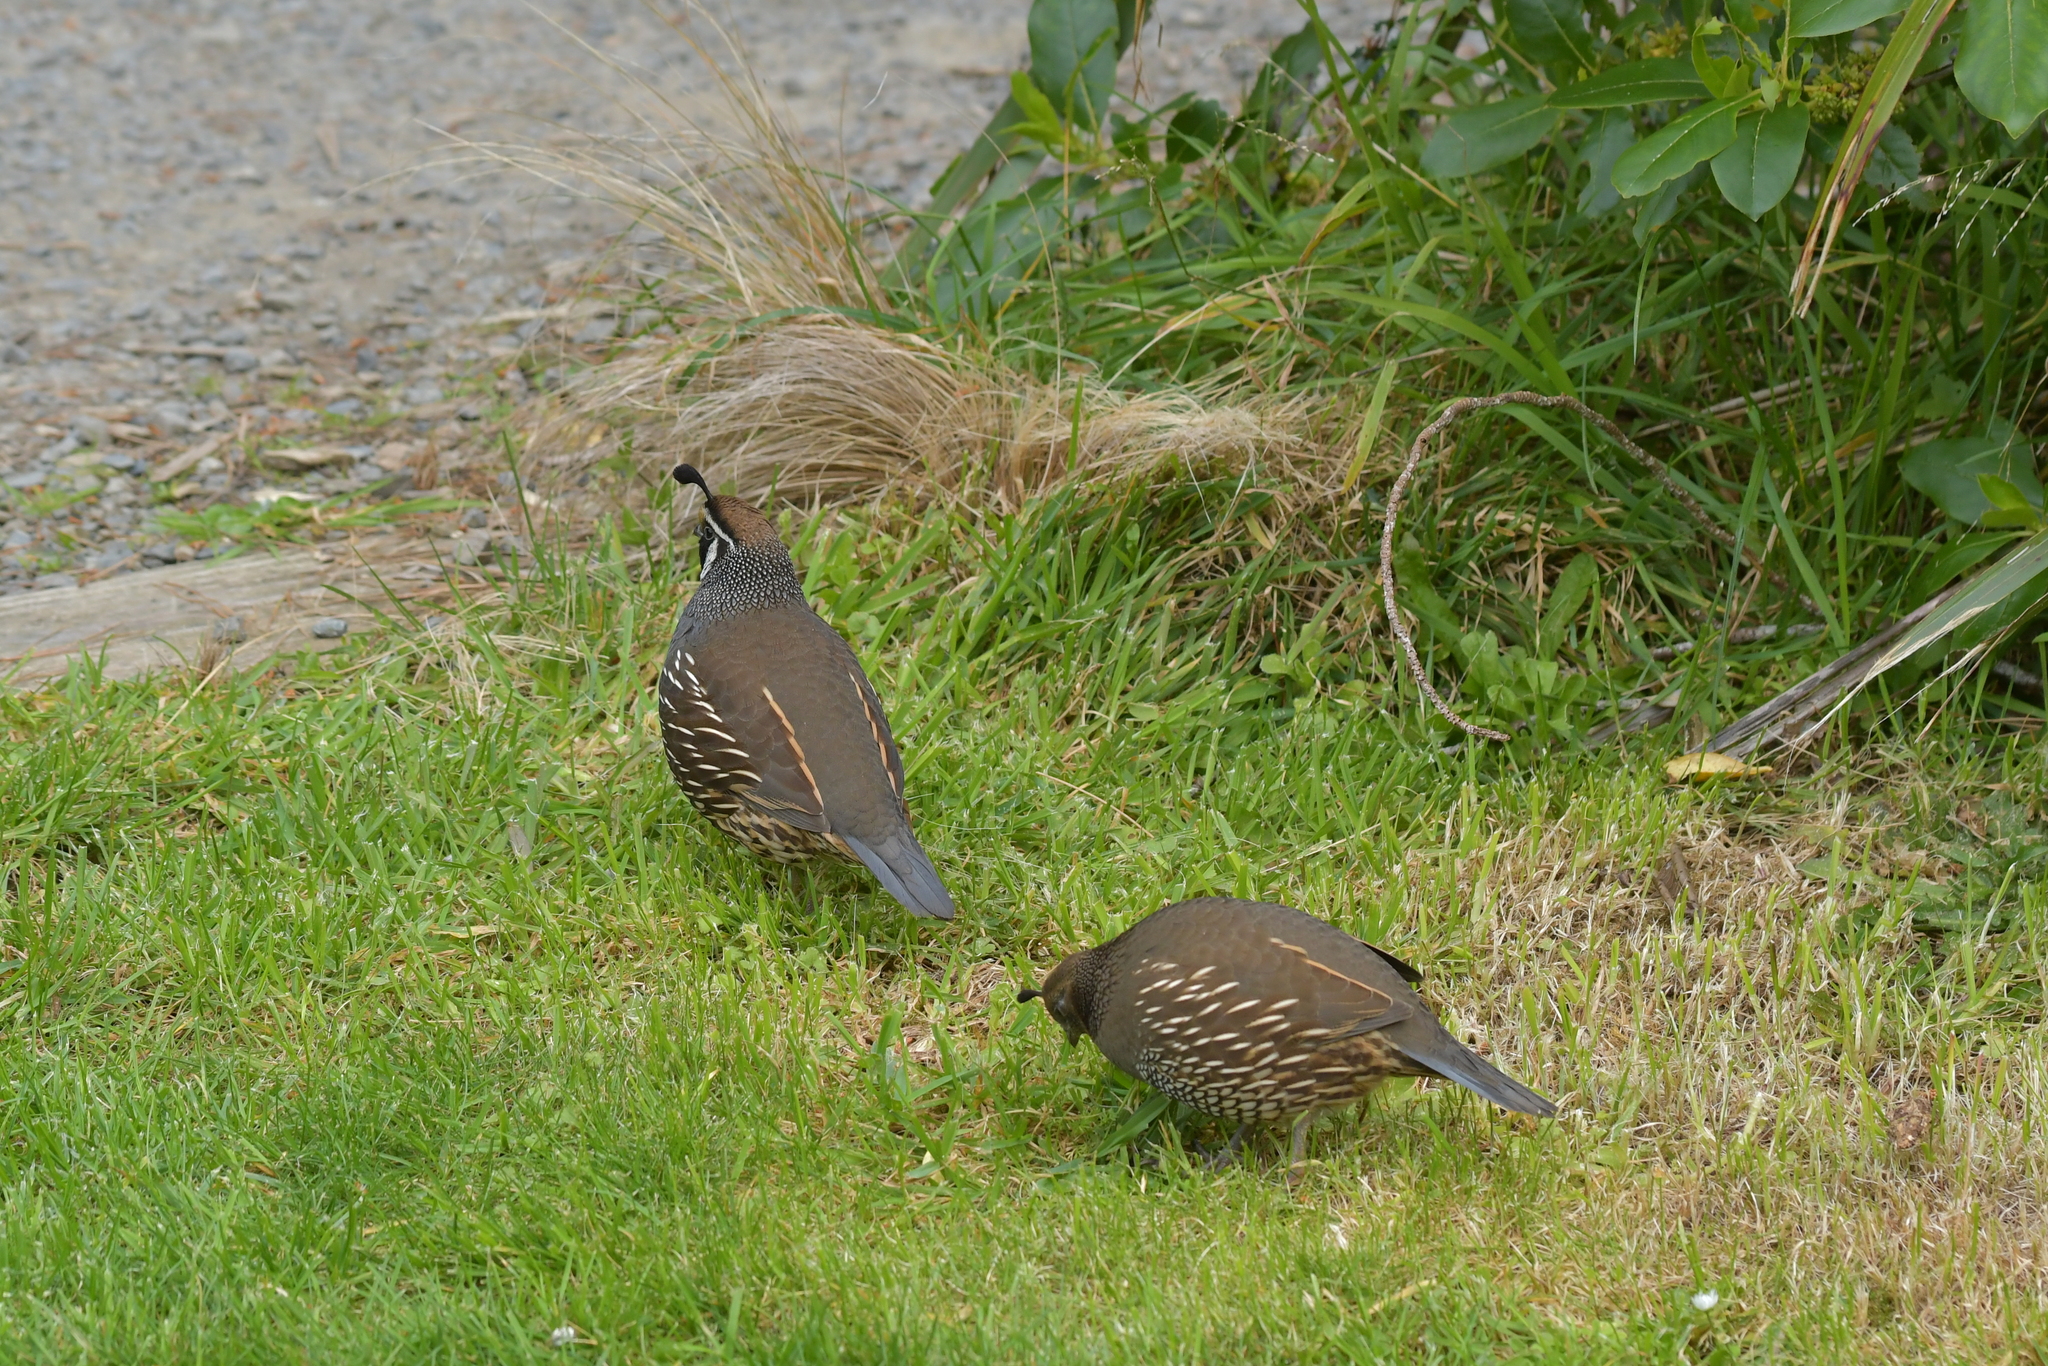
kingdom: Animalia
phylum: Chordata
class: Aves
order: Galliformes
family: Odontophoridae
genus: Callipepla
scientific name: Callipepla californica
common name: California quail
